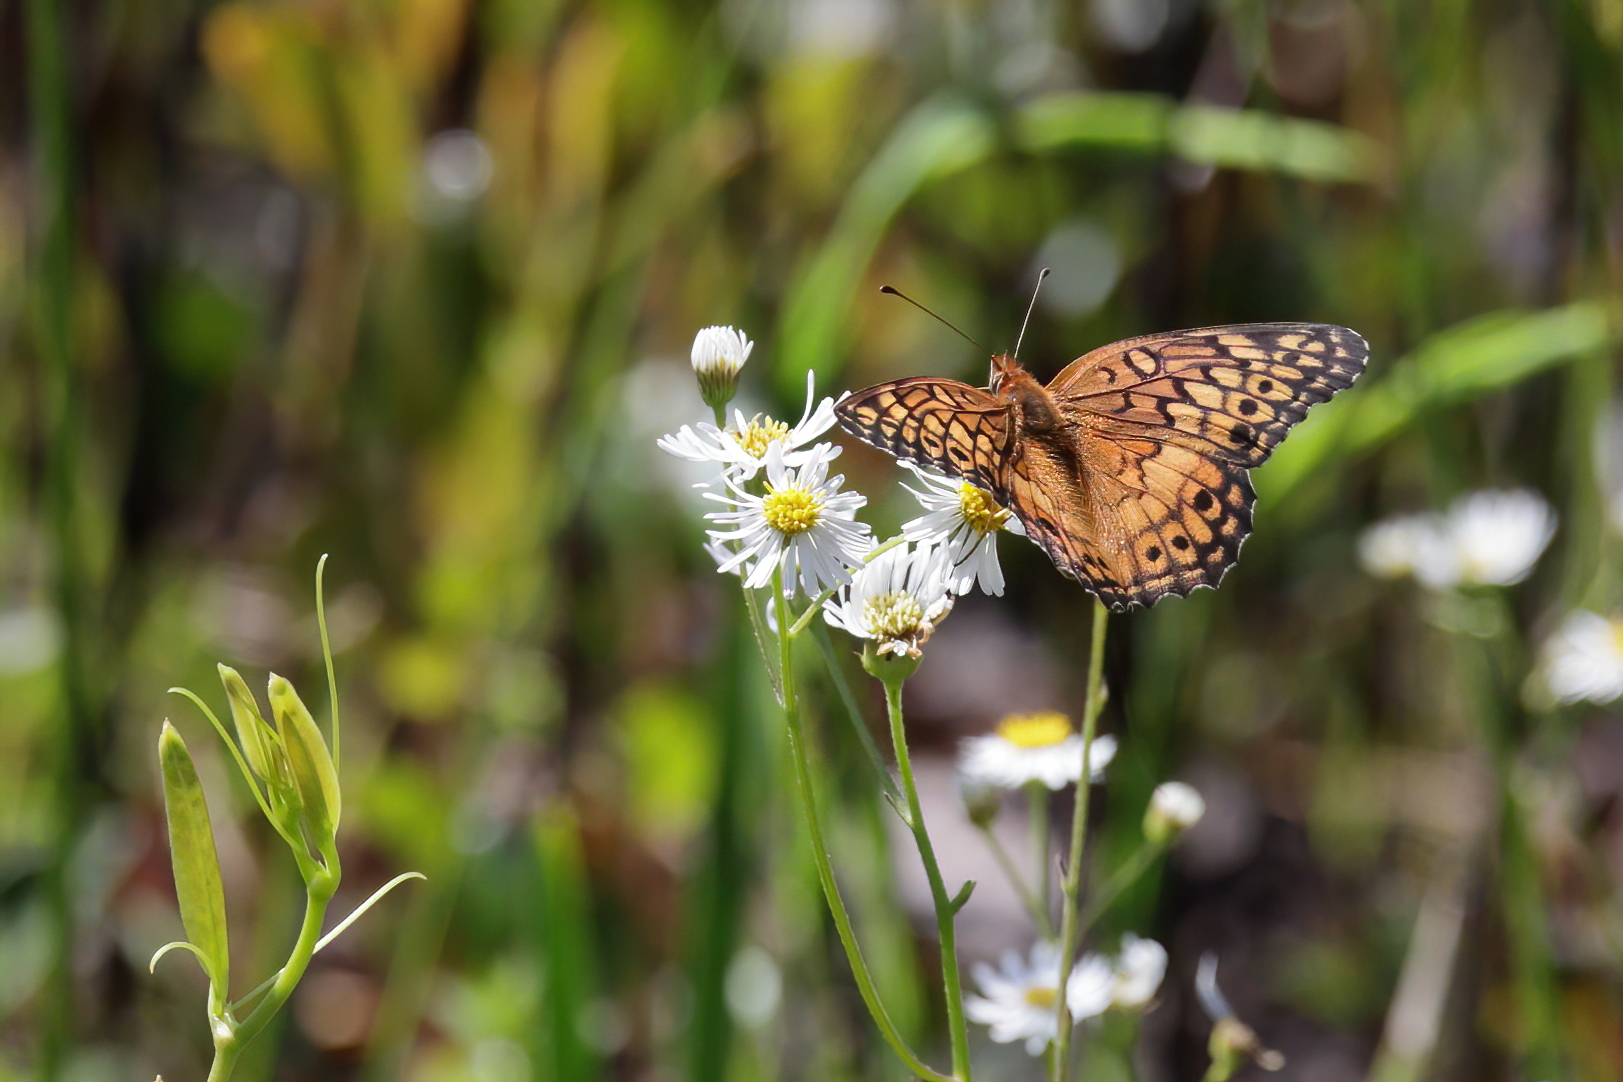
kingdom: Animalia
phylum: Arthropoda
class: Insecta
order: Lepidoptera
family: Nymphalidae
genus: Euptoieta
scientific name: Euptoieta claudia
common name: Variegated fritillary
